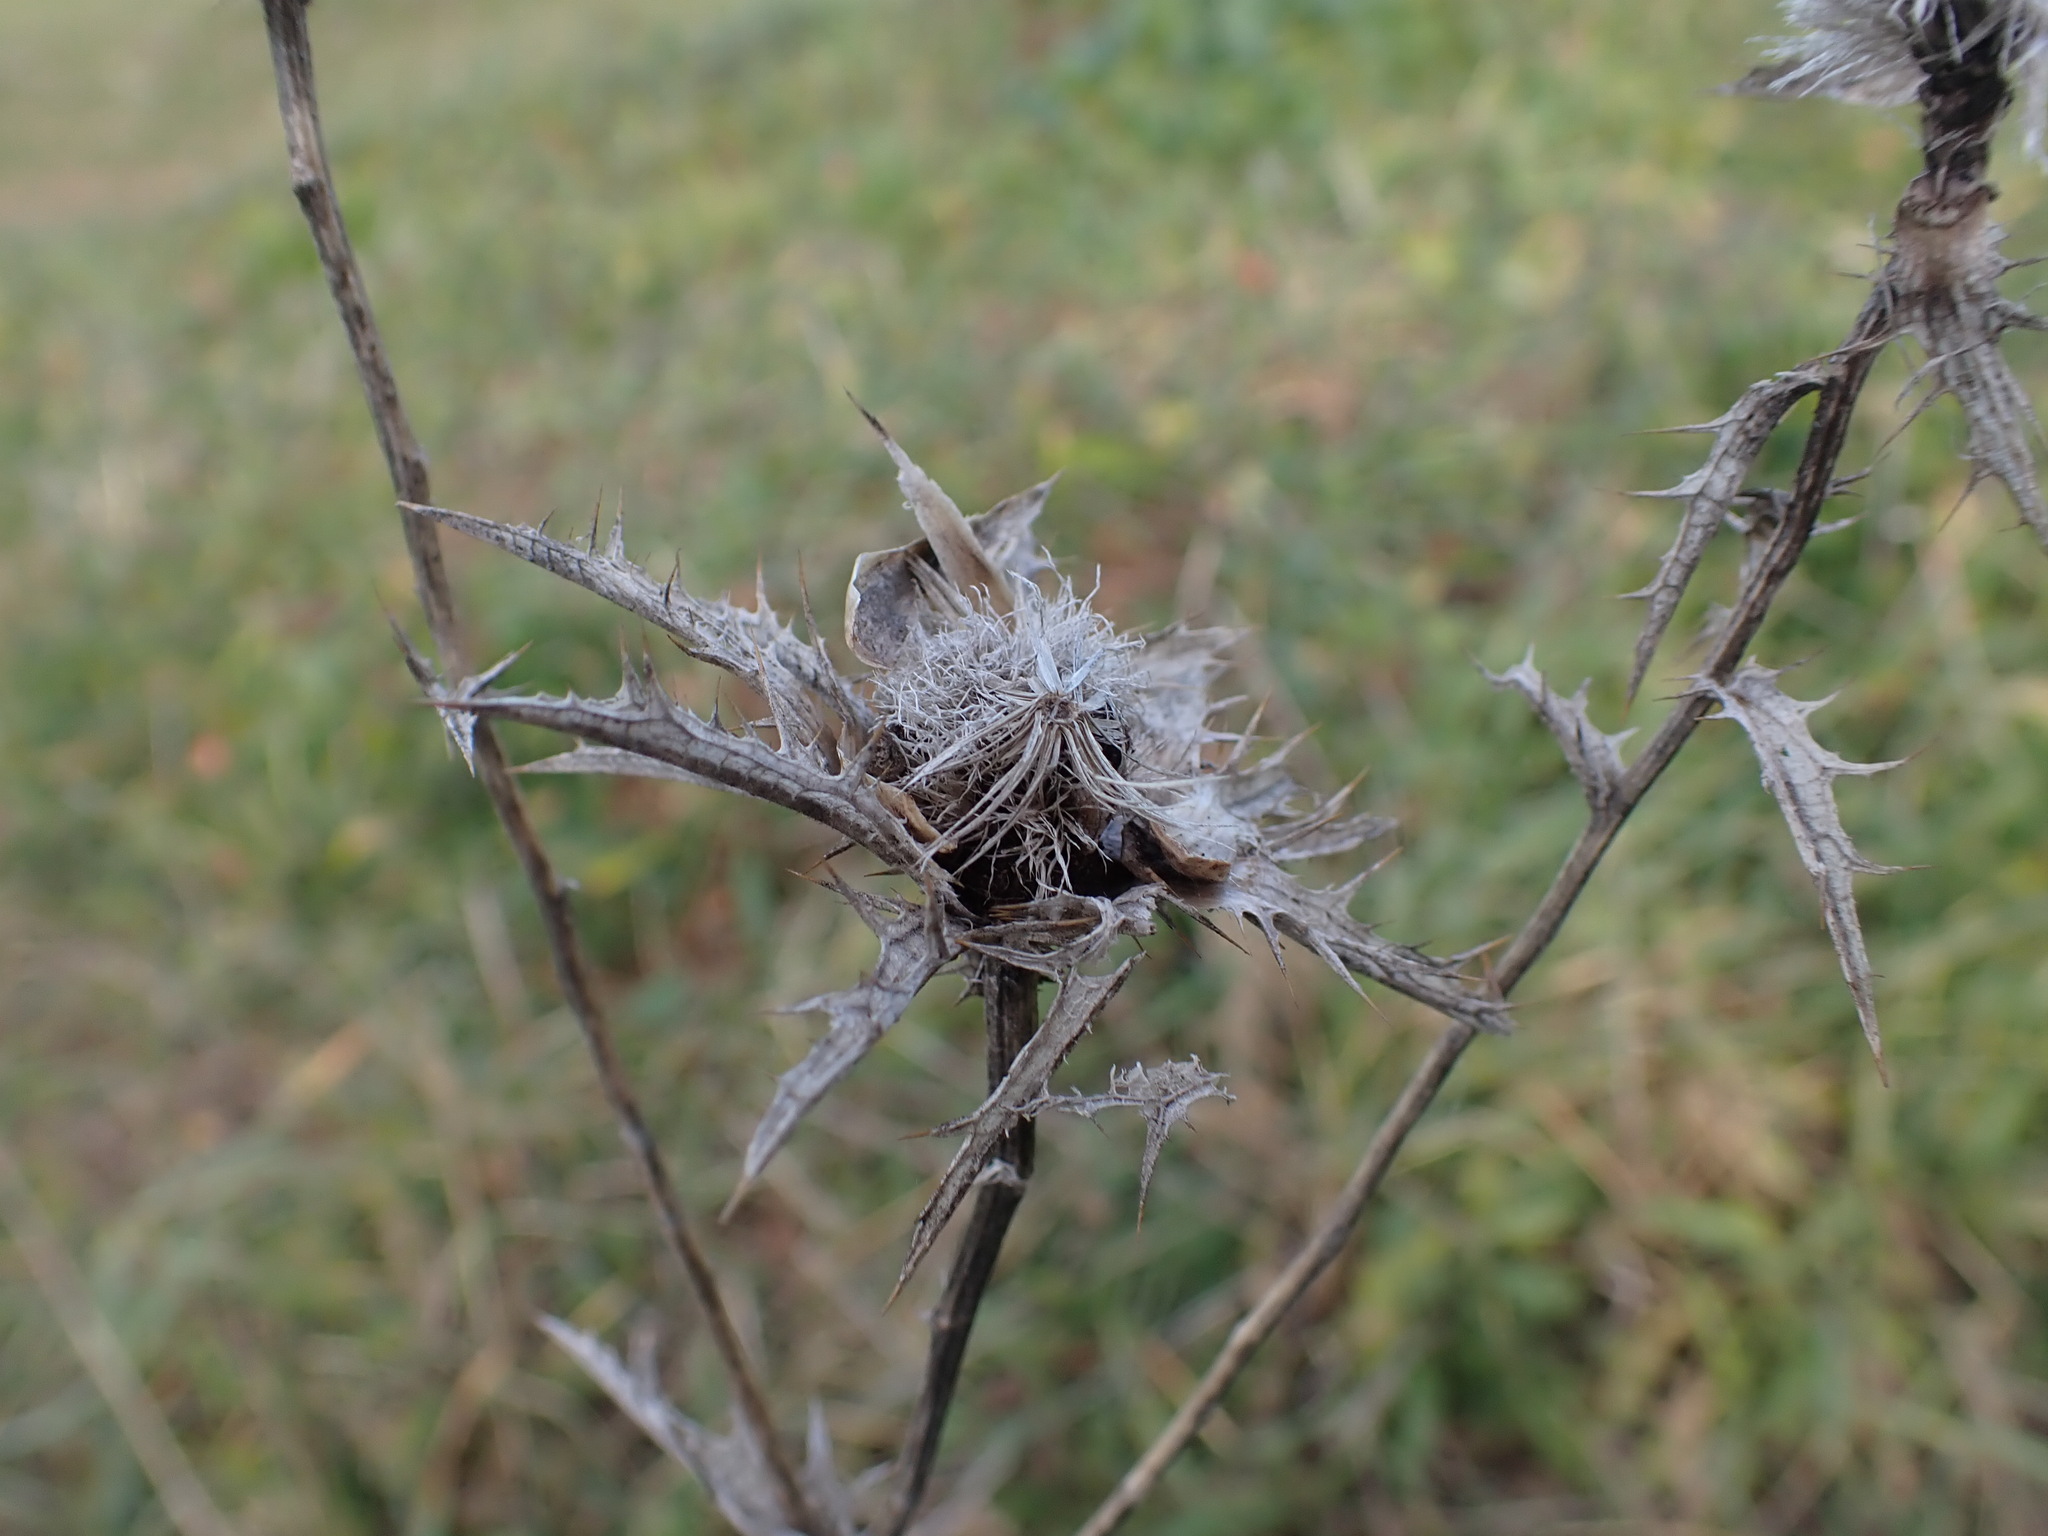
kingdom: Plantae
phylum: Tracheophyta
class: Magnoliopsida
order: Asterales
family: Asteraceae
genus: Carthamus
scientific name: Carthamus lanatus
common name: Downy safflower
